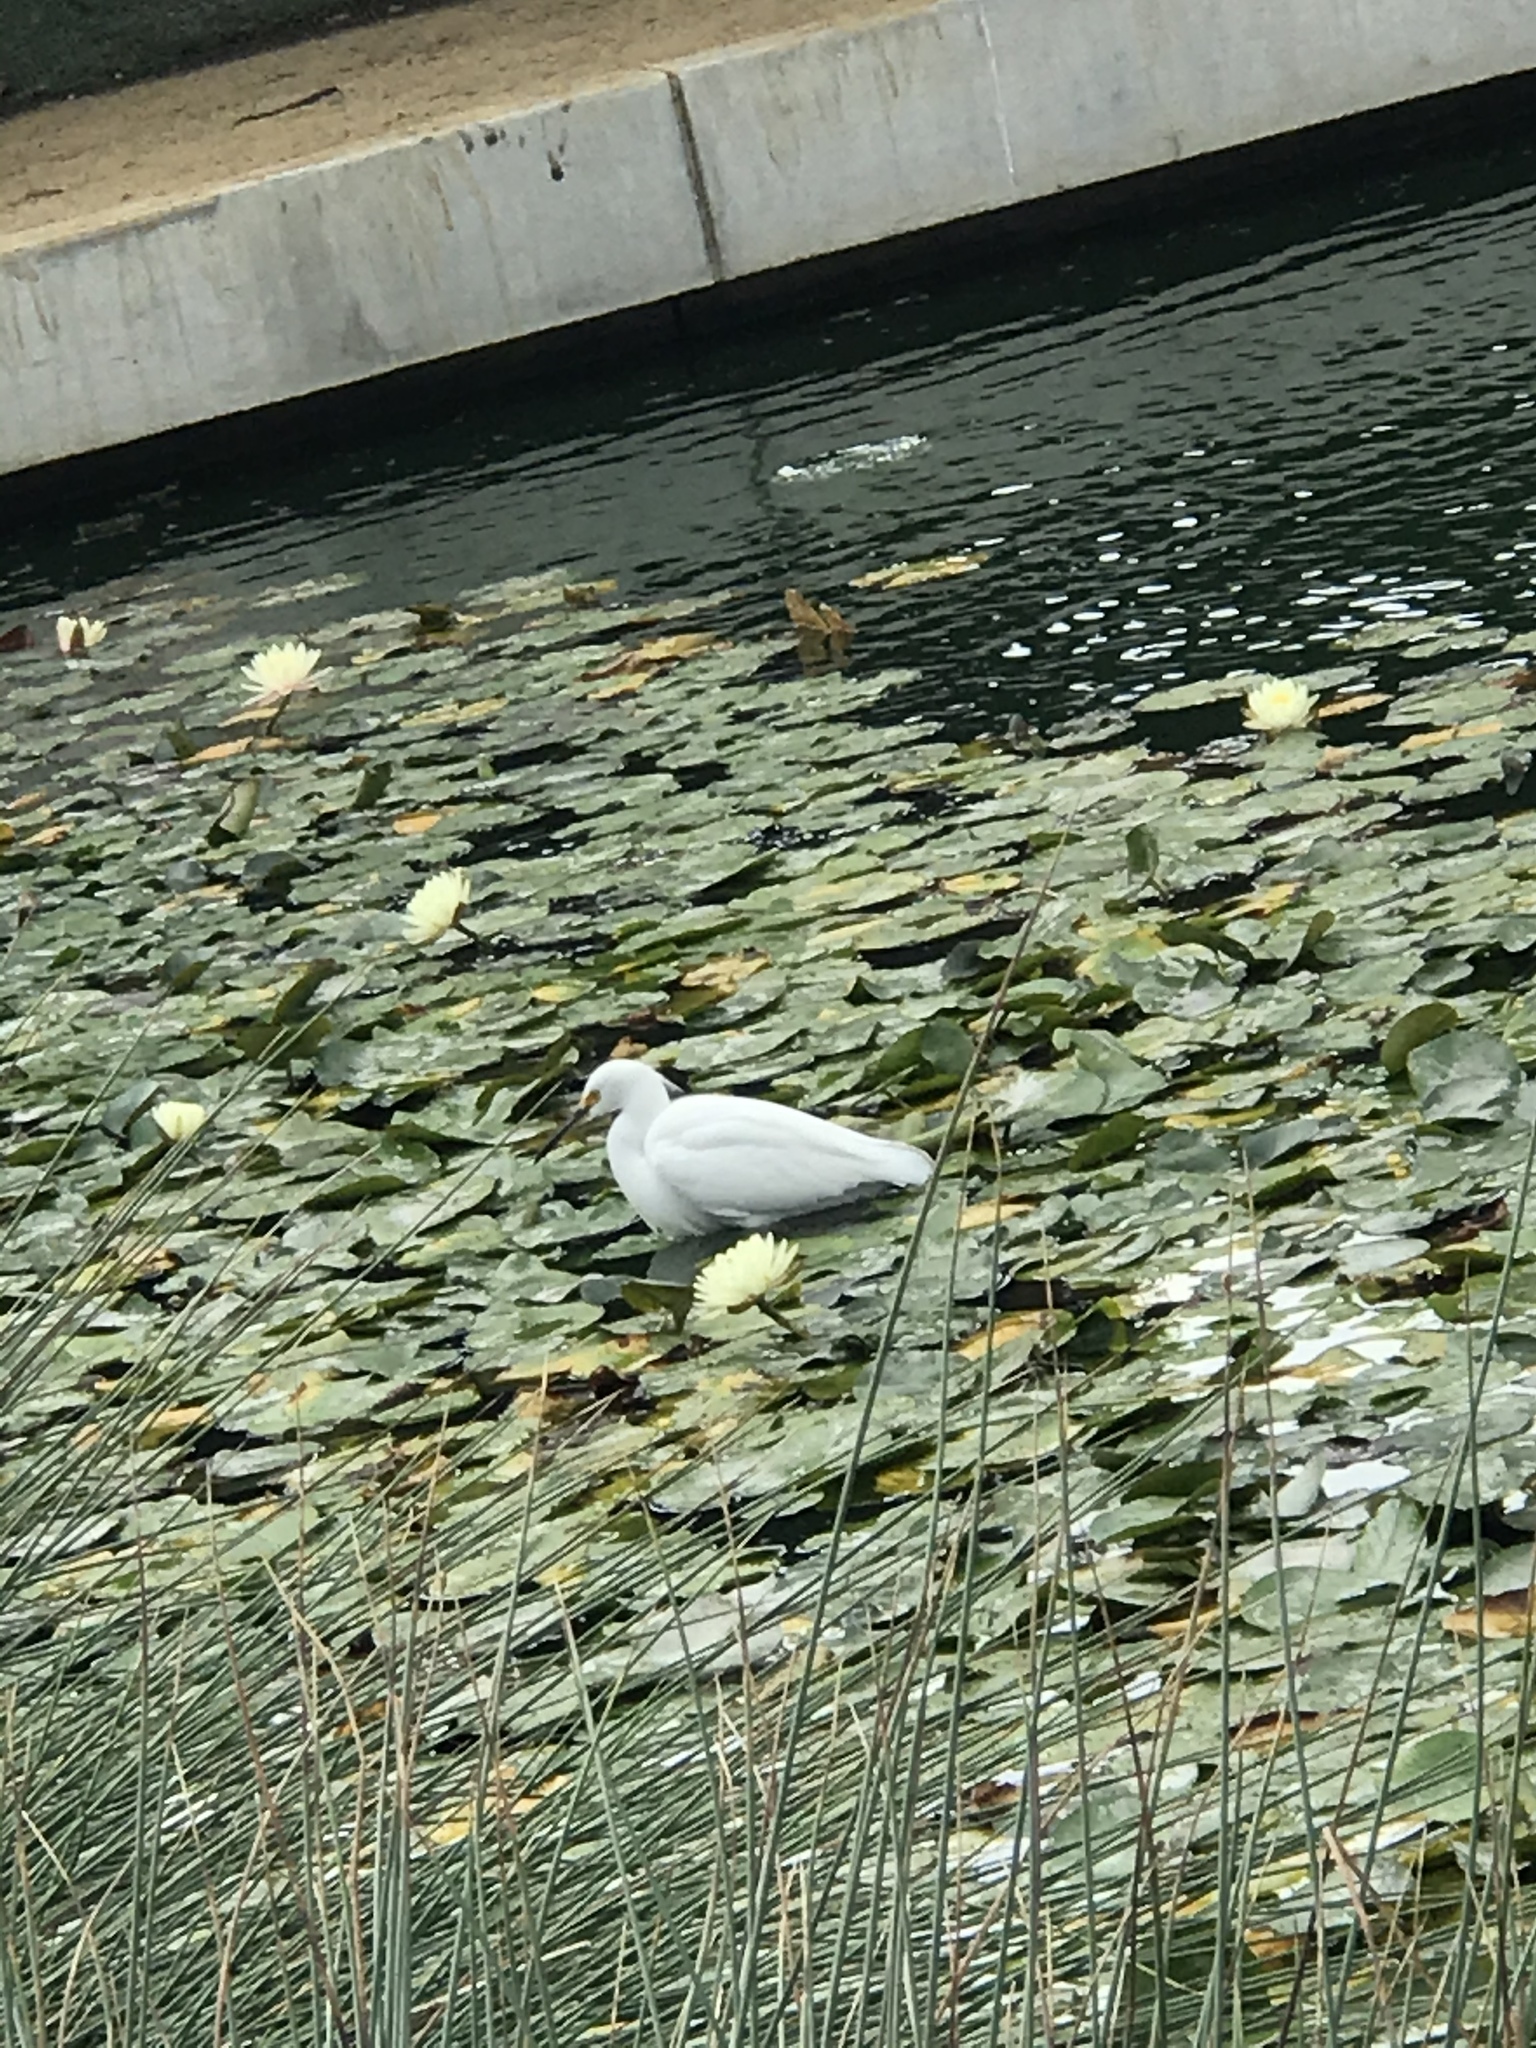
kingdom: Animalia
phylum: Chordata
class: Aves
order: Pelecaniformes
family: Ardeidae
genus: Egretta
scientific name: Egretta thula
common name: Snowy egret
